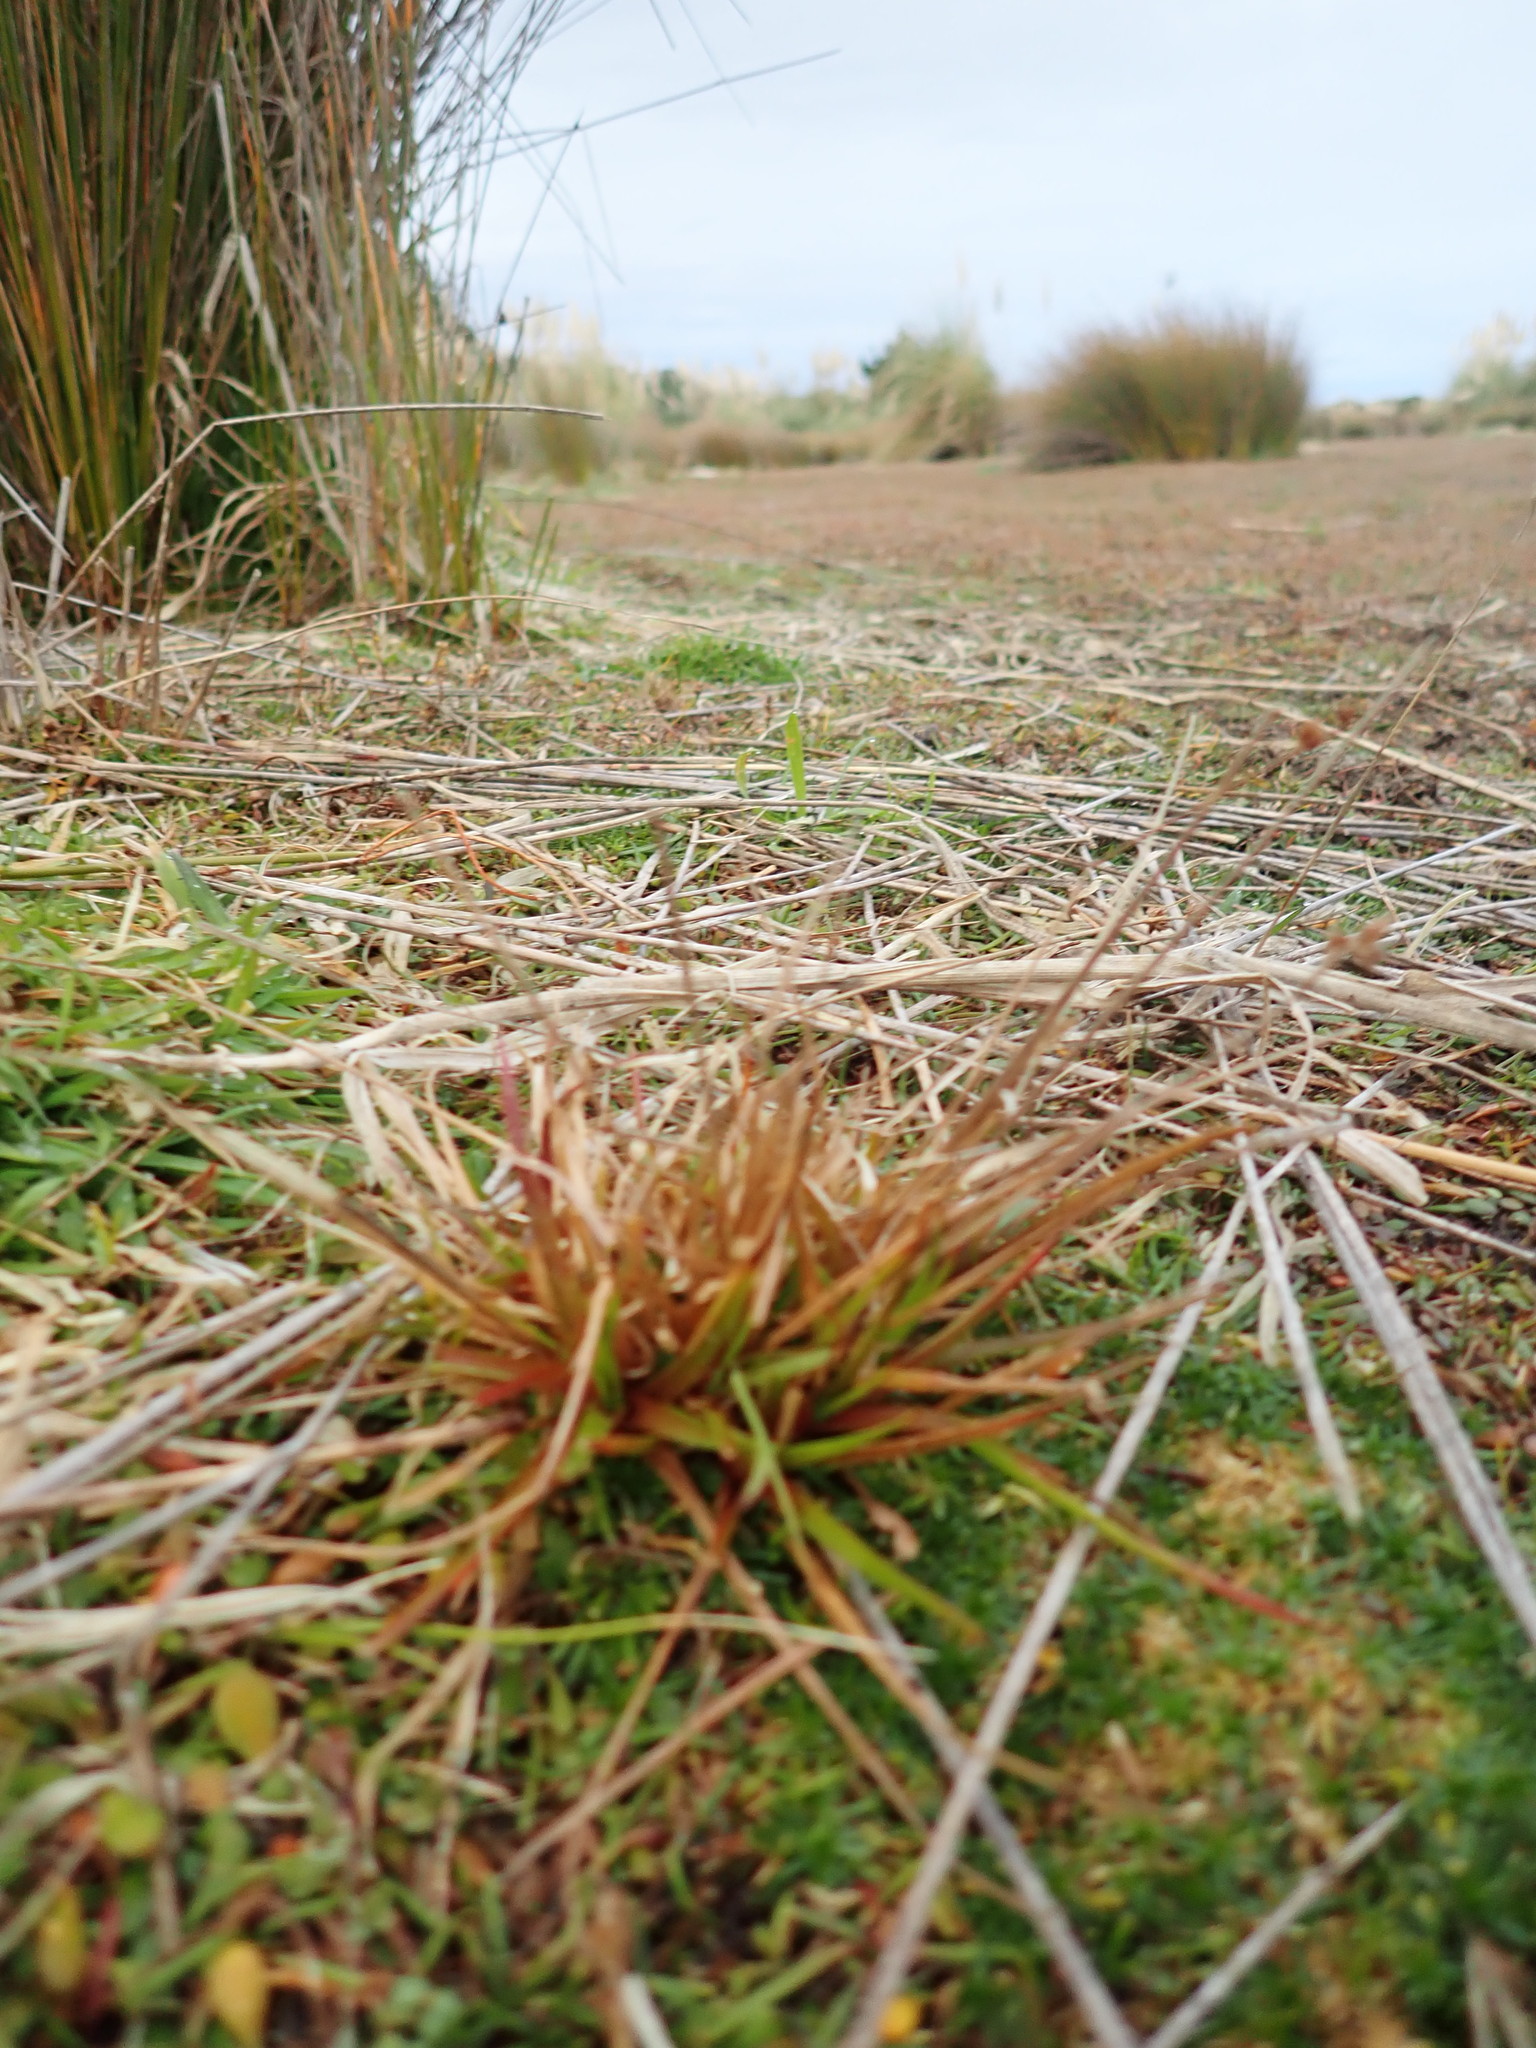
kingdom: Plantae
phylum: Tracheophyta
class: Liliopsida
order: Poales
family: Juncaceae
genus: Juncus
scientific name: Juncus caespiticius
